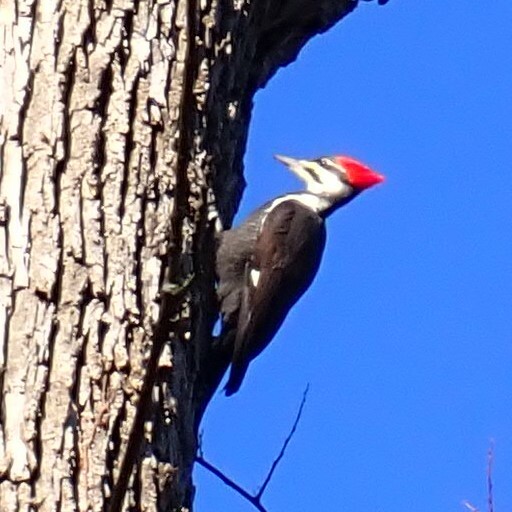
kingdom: Animalia
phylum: Chordata
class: Aves
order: Piciformes
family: Picidae
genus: Dryocopus
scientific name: Dryocopus pileatus
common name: Pileated woodpecker
